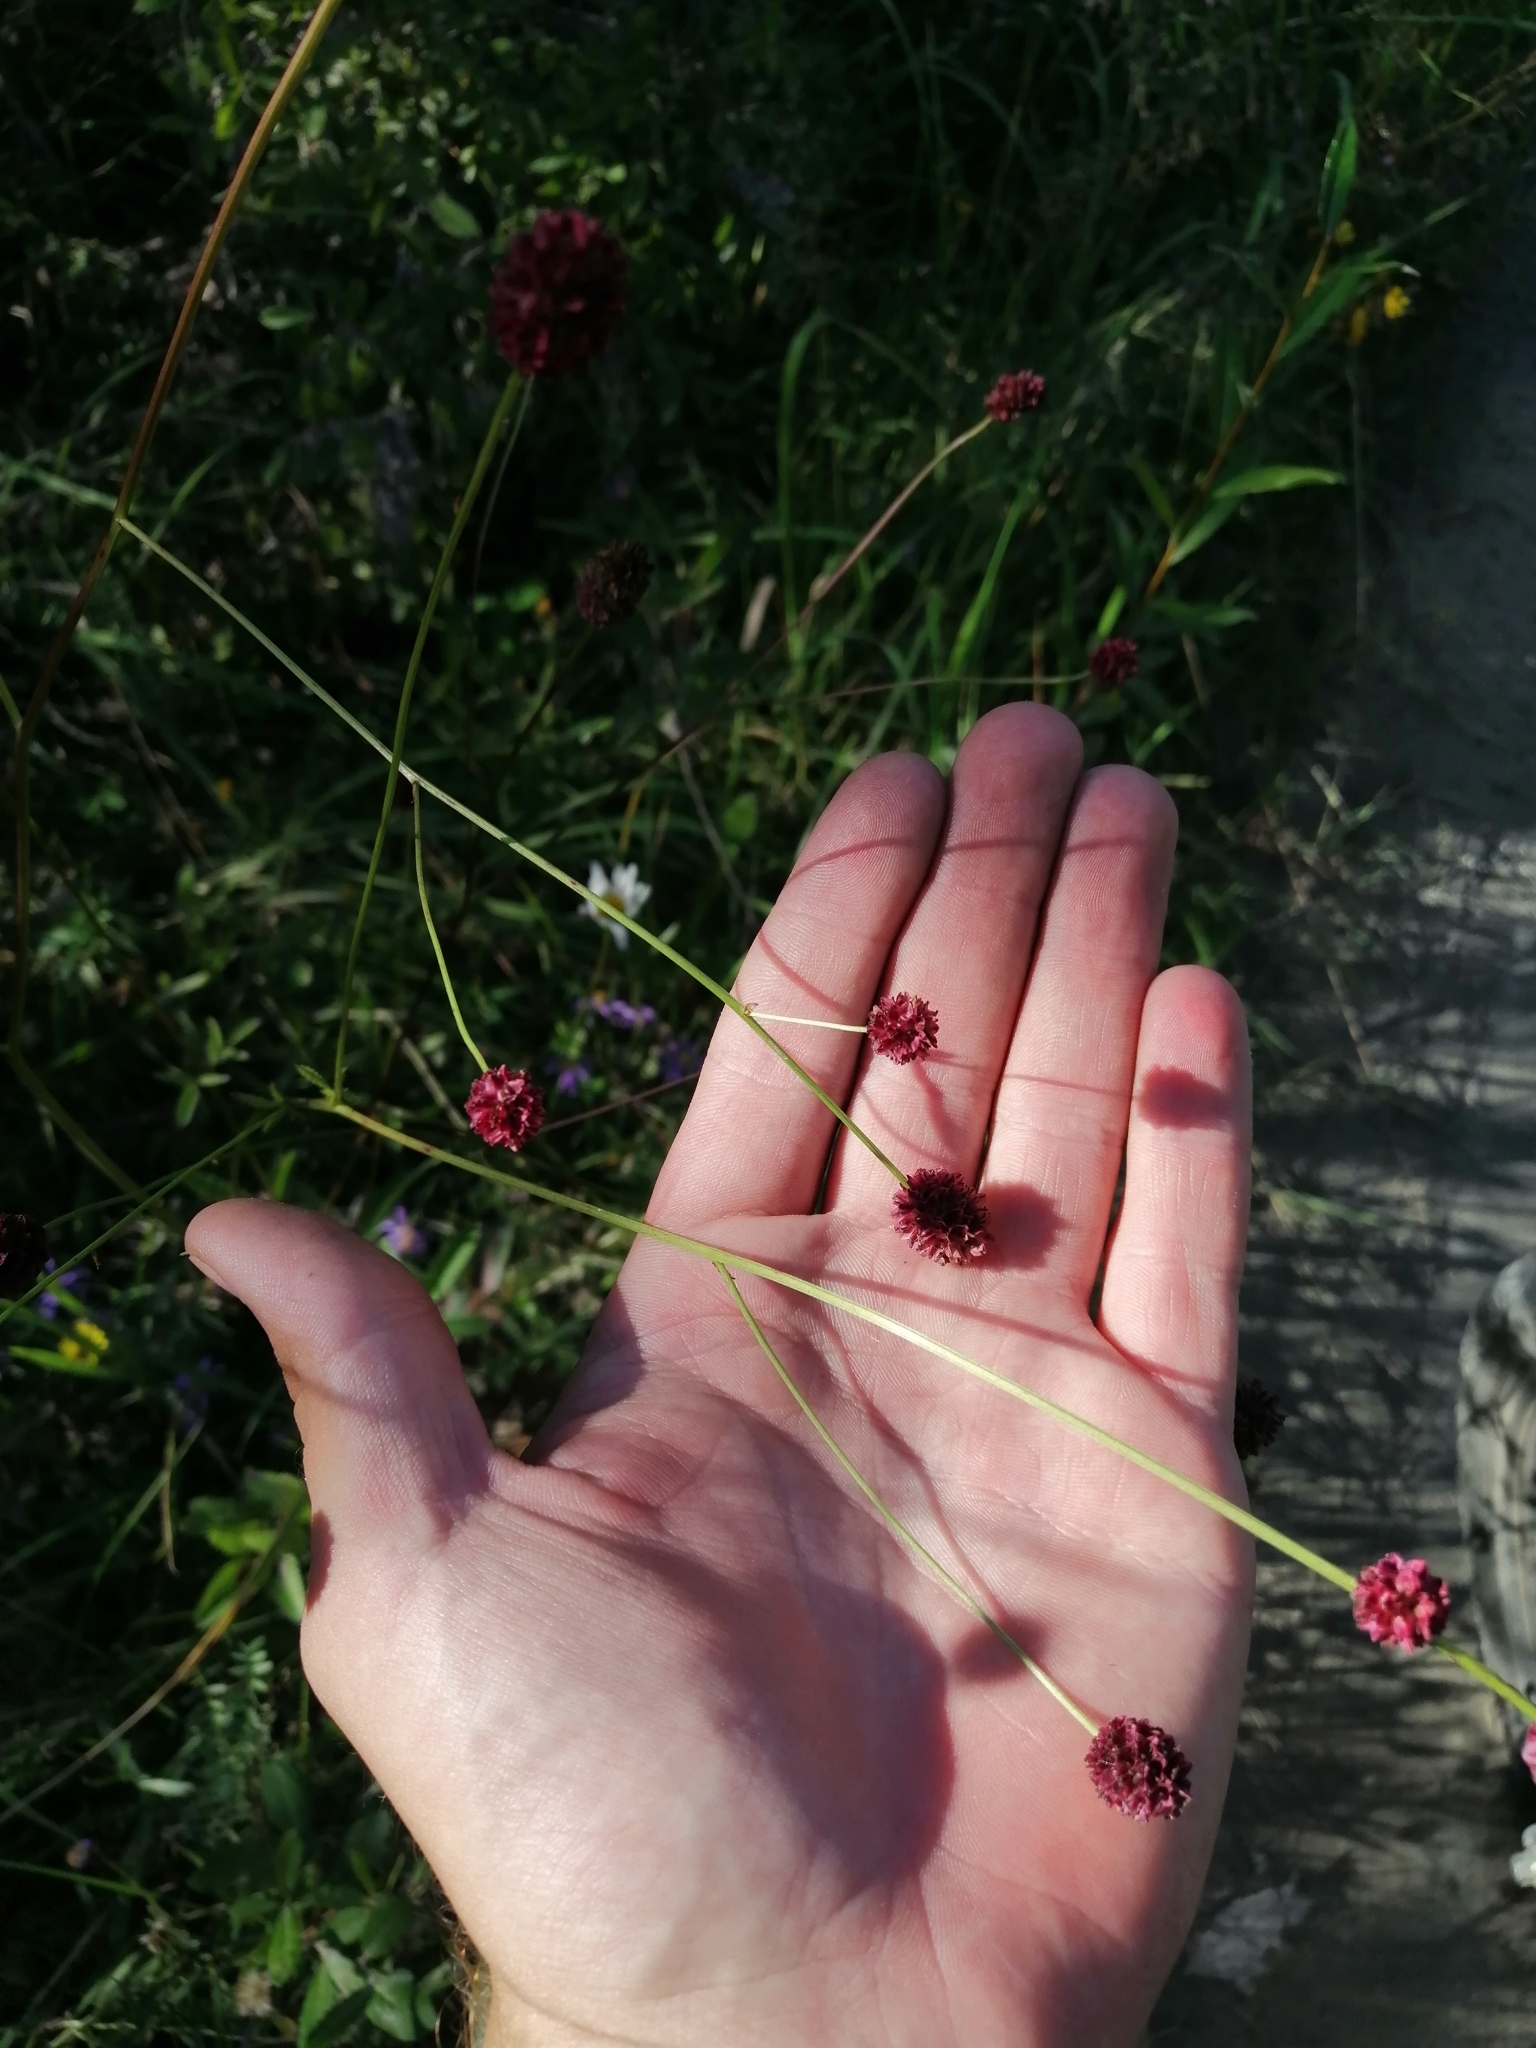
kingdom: Plantae
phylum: Tracheophyta
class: Magnoliopsida
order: Rosales
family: Rosaceae
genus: Sanguisorba
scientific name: Sanguisorba officinalis
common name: Great burnet
